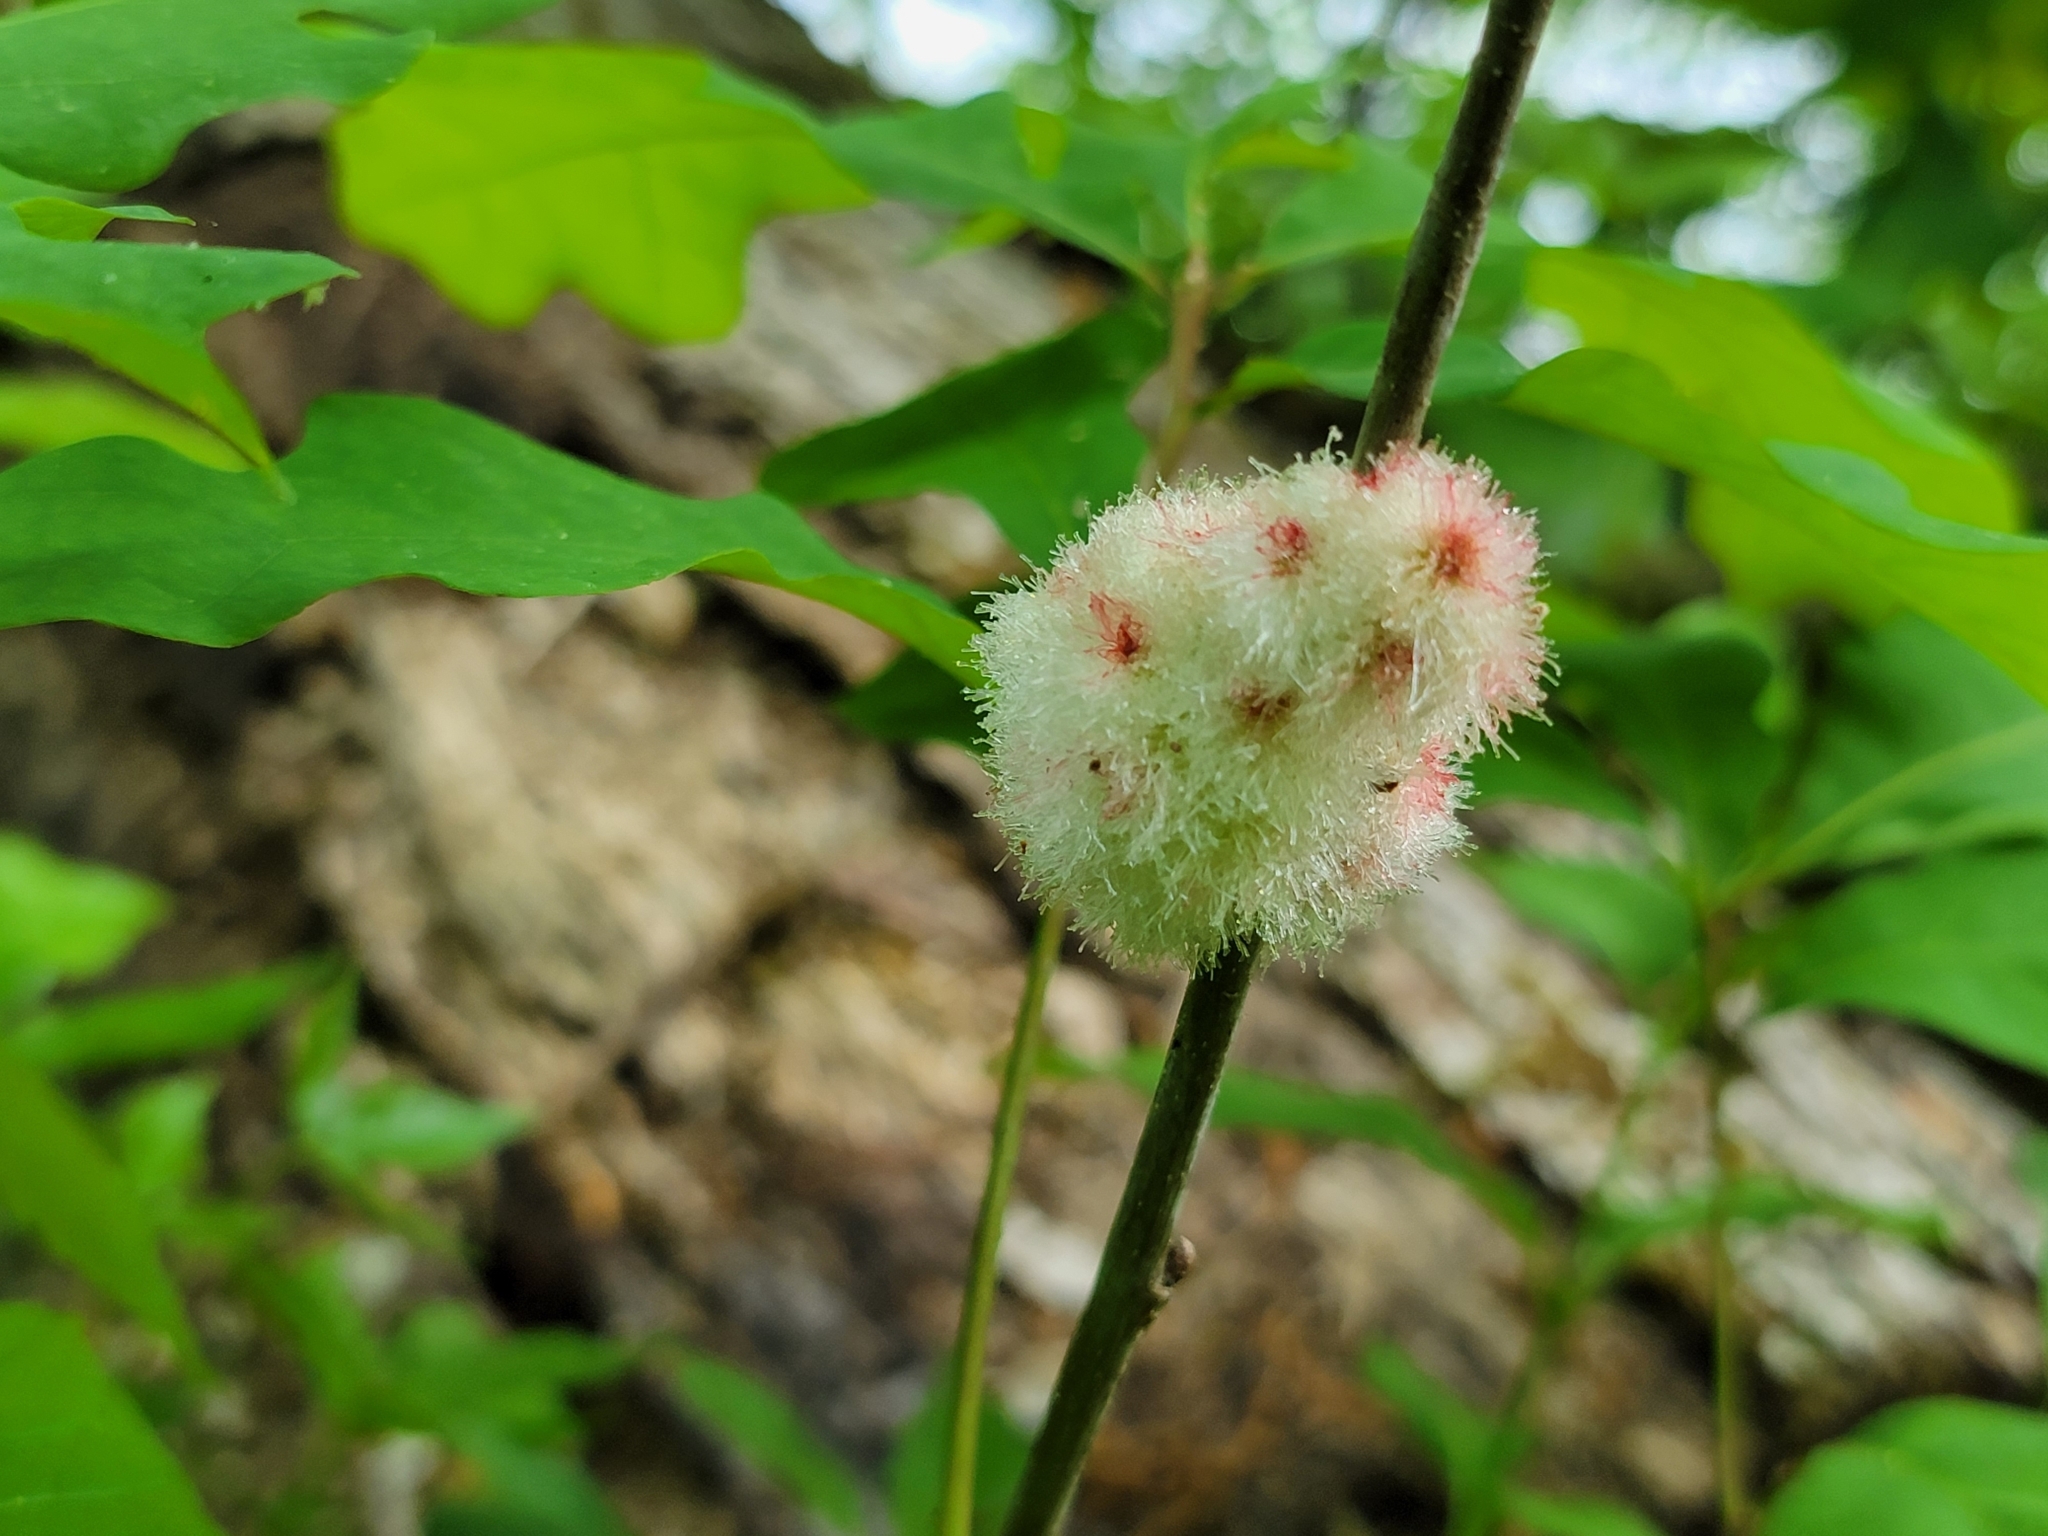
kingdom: Animalia
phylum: Arthropoda
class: Insecta
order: Hymenoptera
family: Cynipidae
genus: Callirhytis
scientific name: Callirhytis
